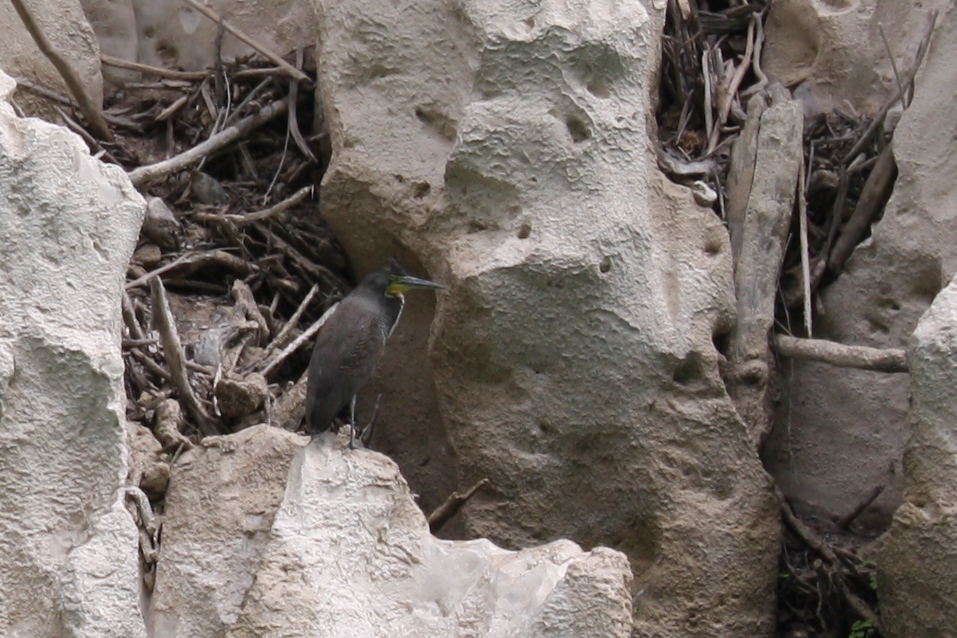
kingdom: Animalia
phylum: Chordata
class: Aves
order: Pelecaniformes
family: Ardeidae
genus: Tigrisoma
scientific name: Tigrisoma mexicanum
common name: Bare-throated tiger-heron
